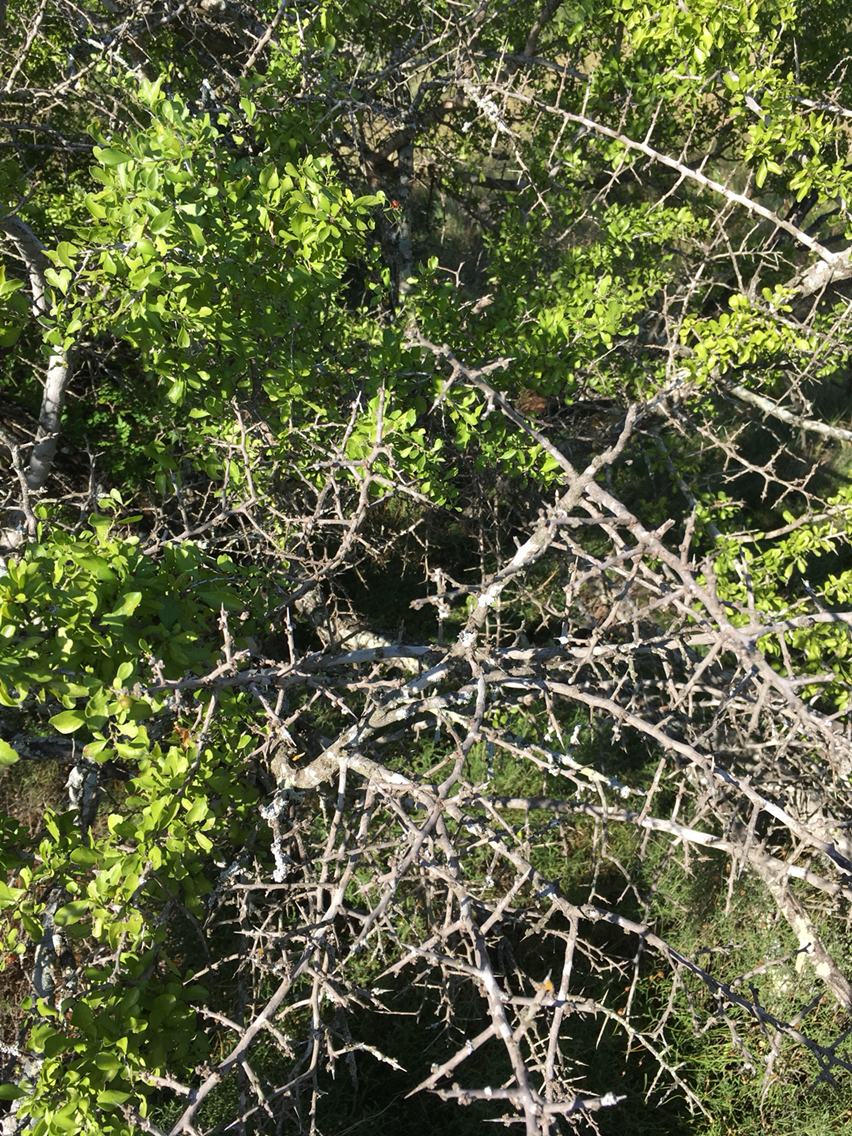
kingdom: Plantae
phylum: Tracheophyta
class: Magnoliopsida
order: Rosales
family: Rhamnaceae
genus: Condalia
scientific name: Condalia hookeri
